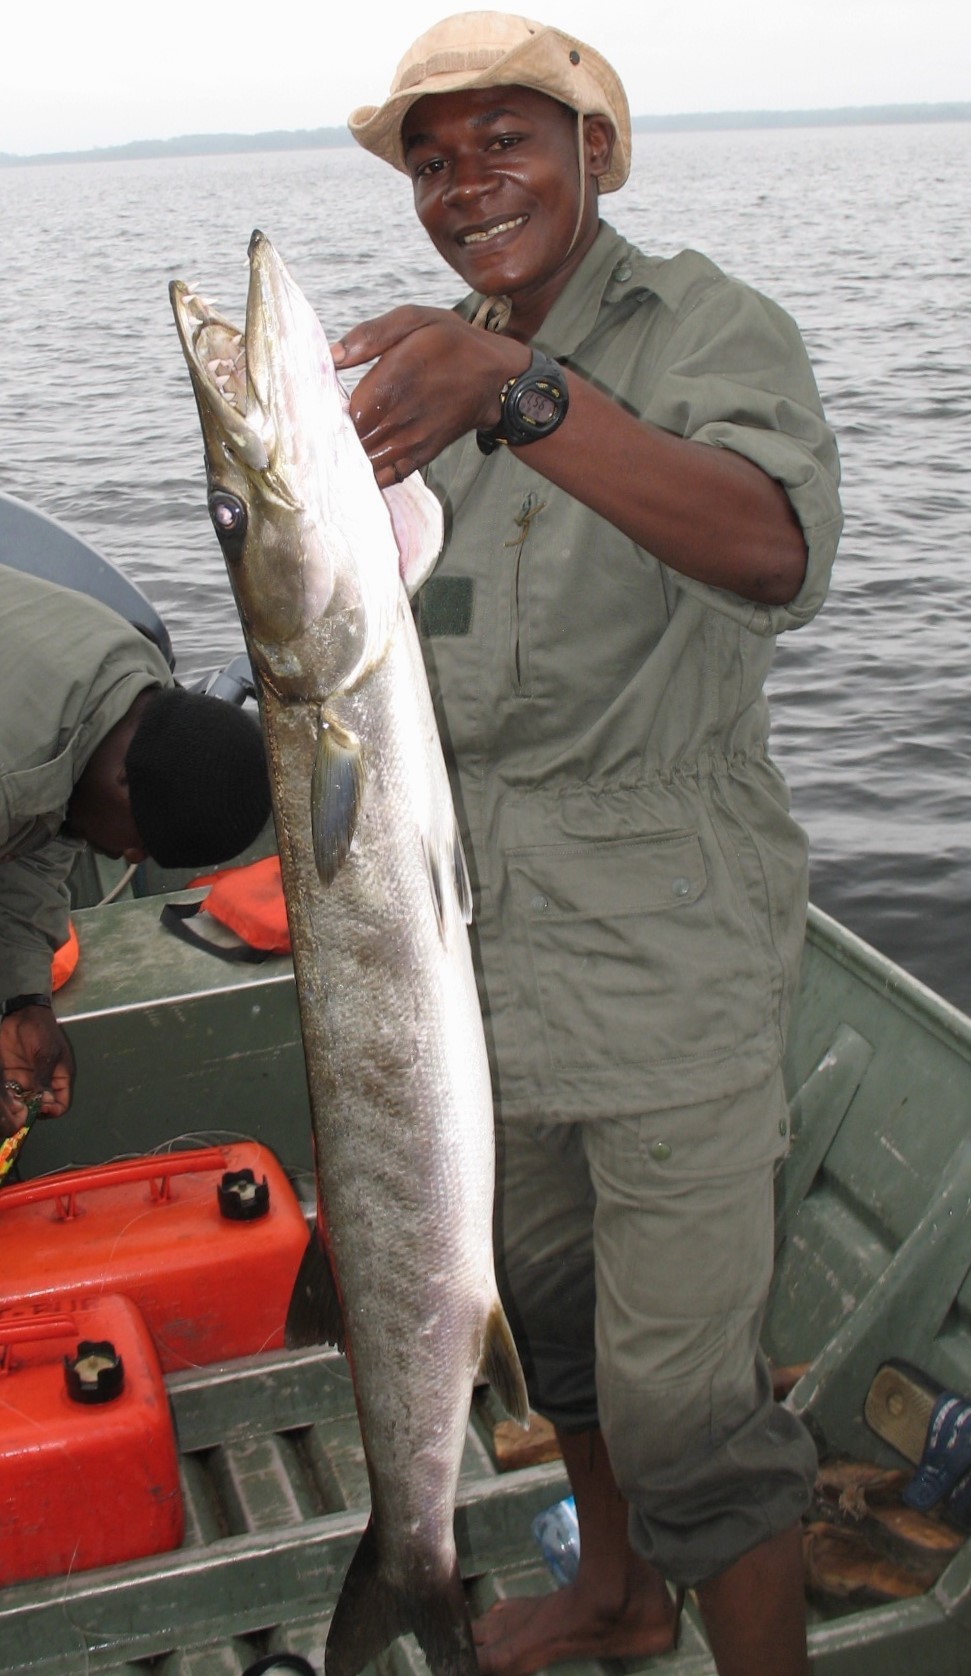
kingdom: Animalia
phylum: Chordata
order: Perciformes
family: Sphyraenidae
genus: Sphyraena
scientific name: Sphyraena afra
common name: Guinean barracuda
